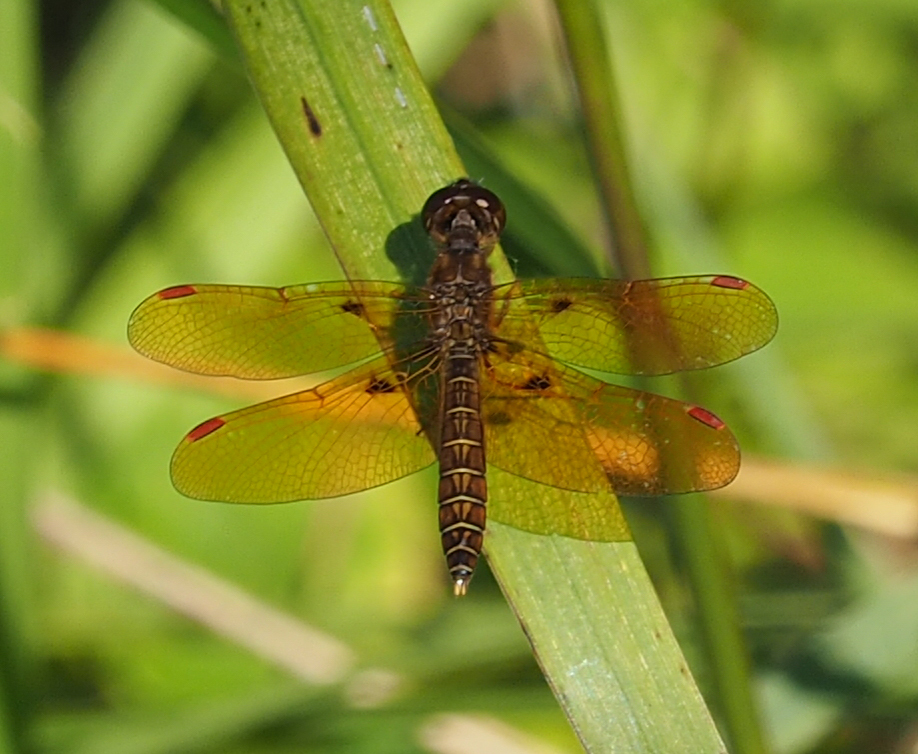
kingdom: Animalia
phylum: Arthropoda
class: Insecta
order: Odonata
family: Libellulidae
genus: Perithemis
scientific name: Perithemis tenera
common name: Eastern amberwing
